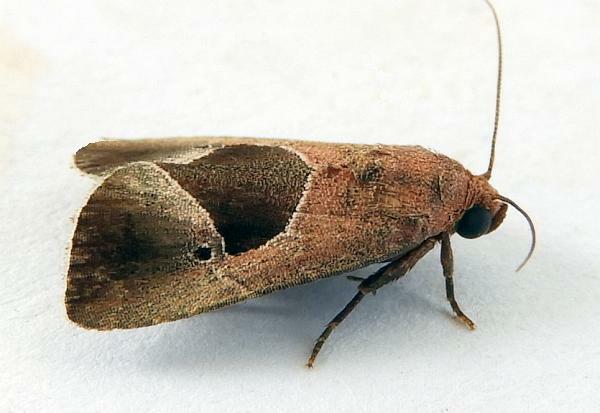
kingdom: Animalia
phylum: Arthropoda
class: Insecta
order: Lepidoptera
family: Noctuidae
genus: Elaphria
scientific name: Elaphria deltoides
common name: Cutworm moth
